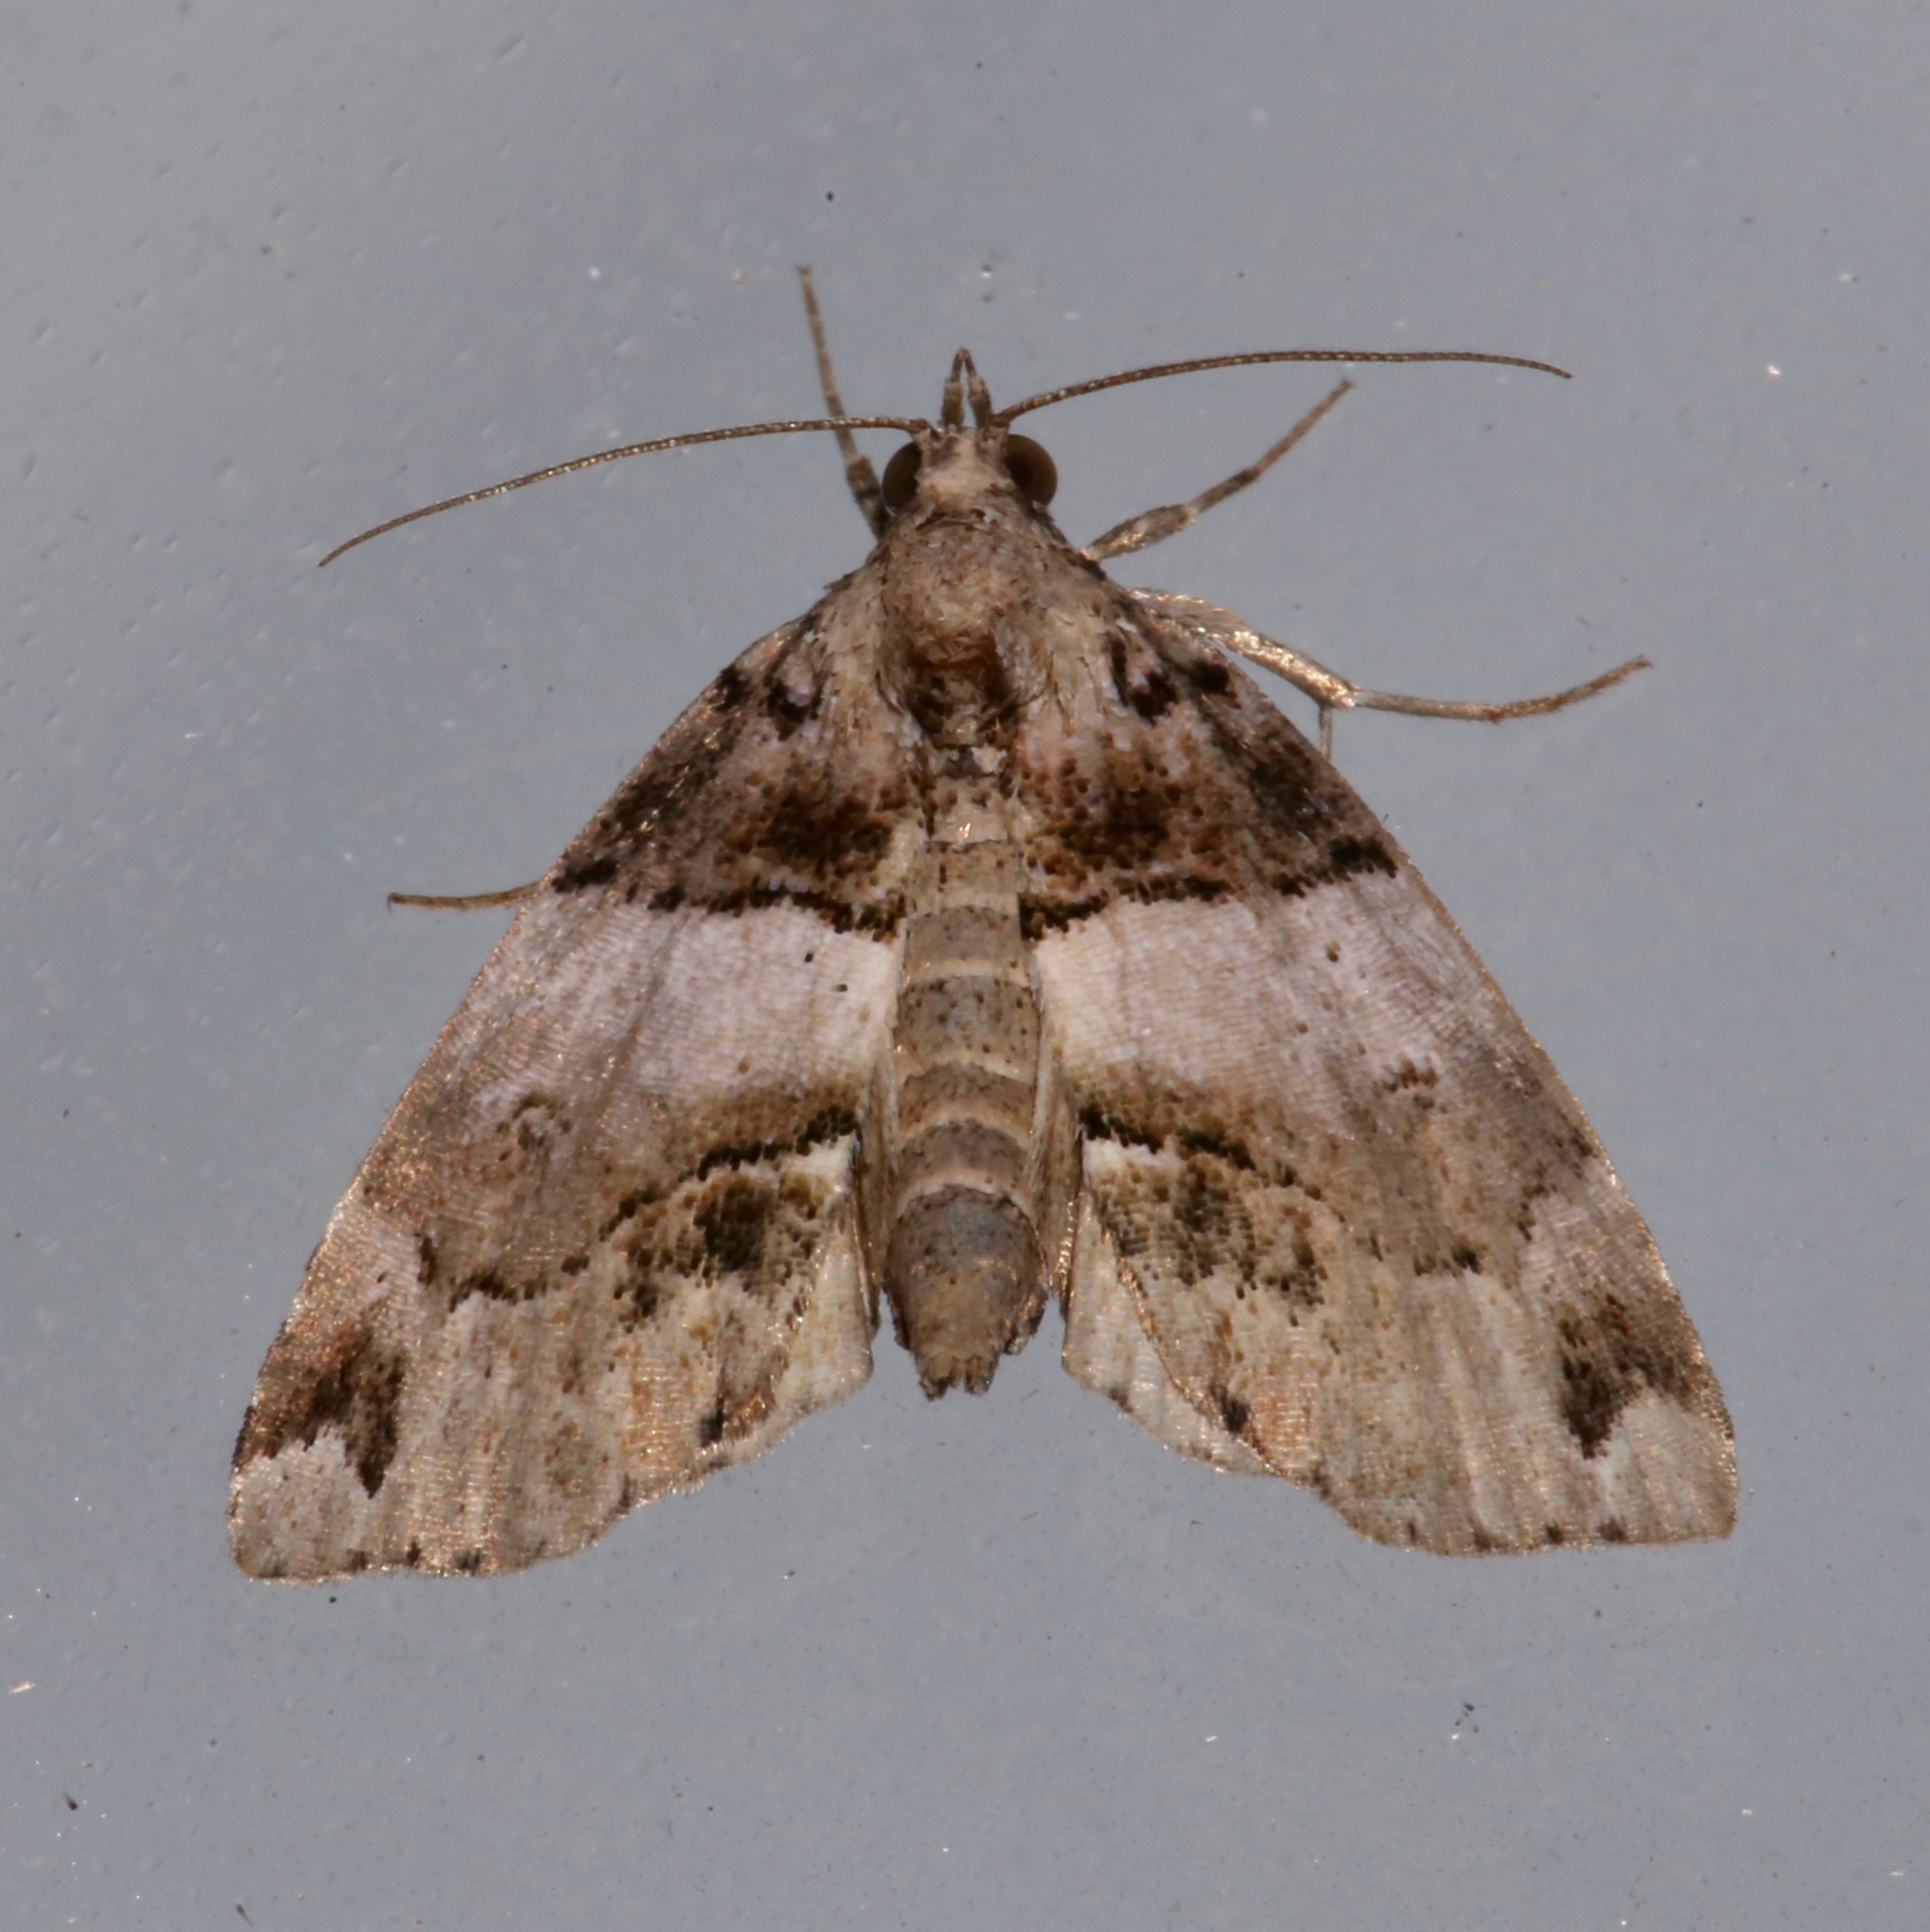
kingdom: Animalia
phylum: Arthropoda
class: Insecta
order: Lepidoptera
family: Erebidae
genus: Cutina
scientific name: Cutina distincta
